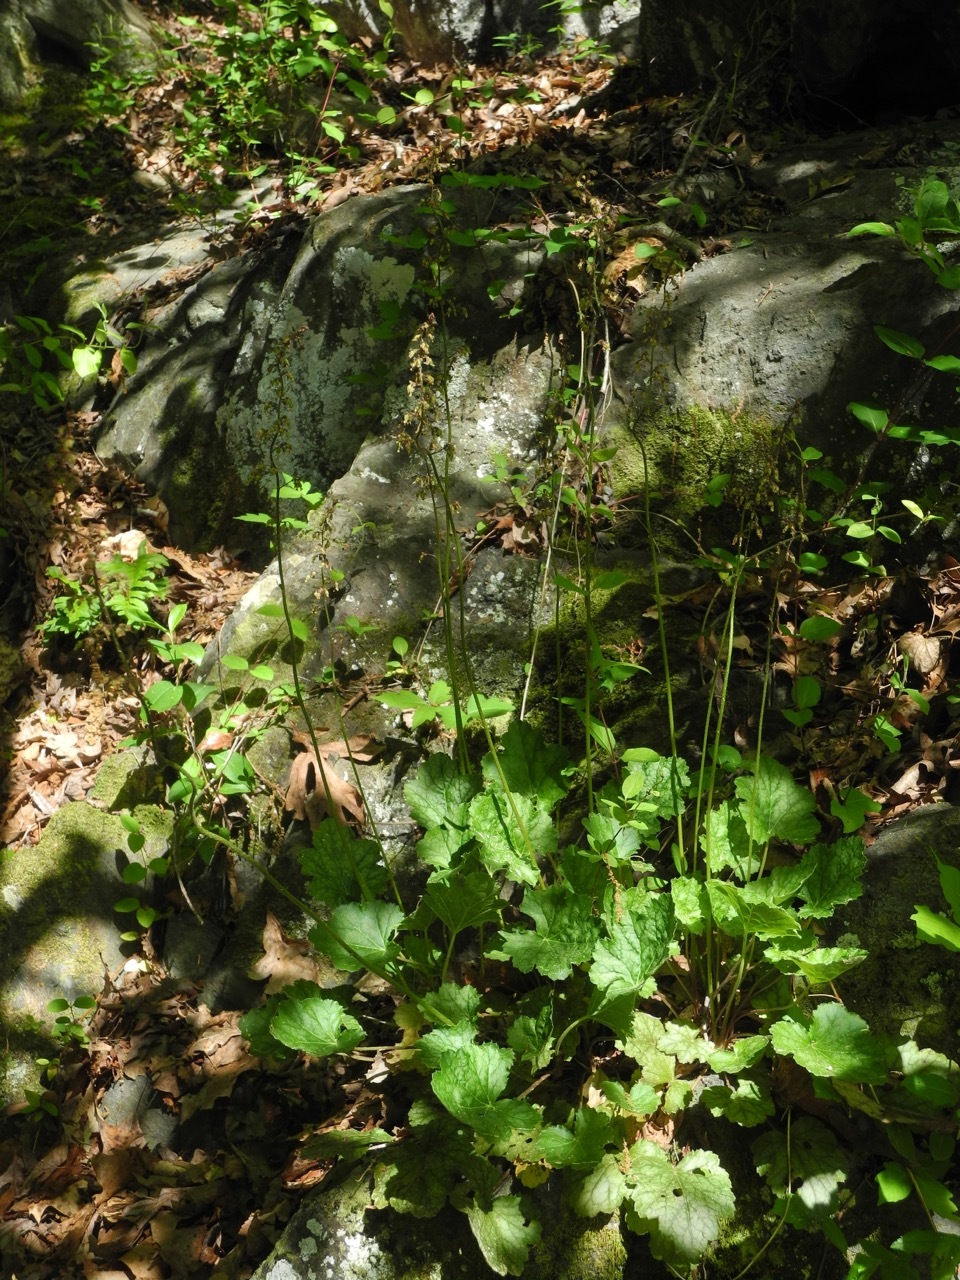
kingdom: Plantae
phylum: Tracheophyta
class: Magnoliopsida
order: Saxifragales
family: Saxifragaceae
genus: Heuchera
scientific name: Heuchera americana
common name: Alumroot
